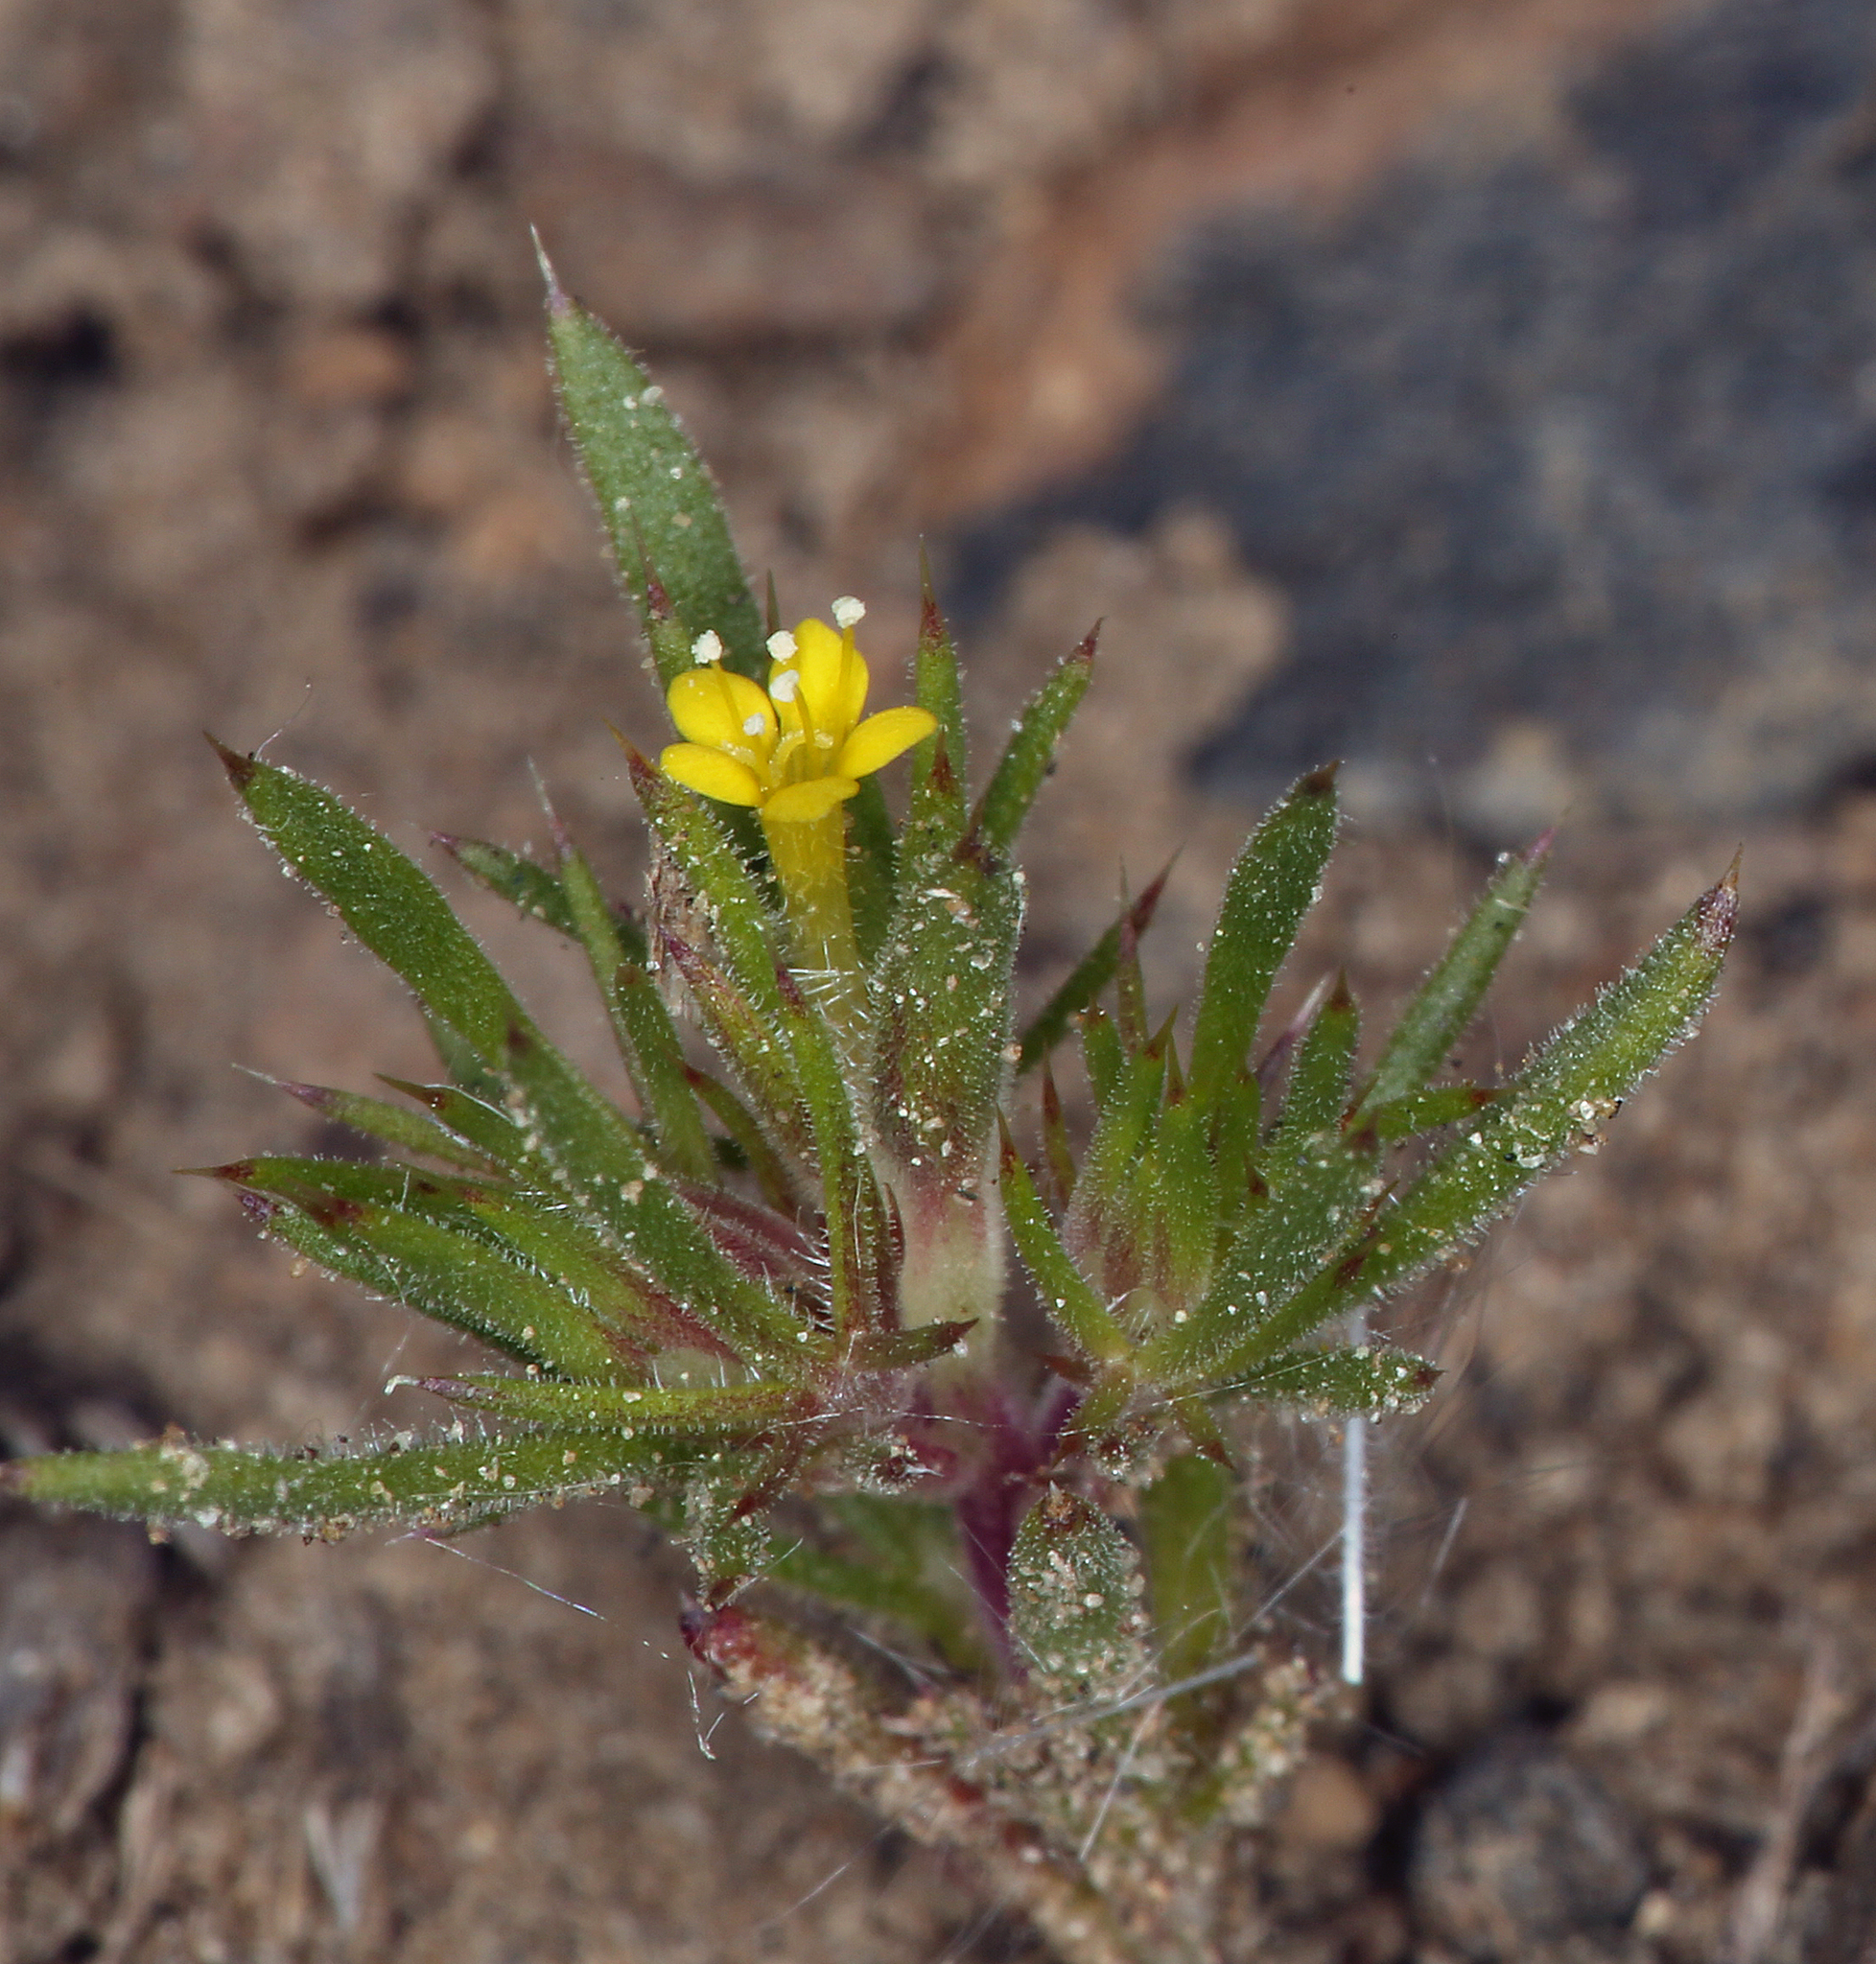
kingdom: Plantae
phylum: Tracheophyta
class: Magnoliopsida
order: Ericales
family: Polemoniaceae
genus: Navarretia
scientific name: Navarretia breweri
